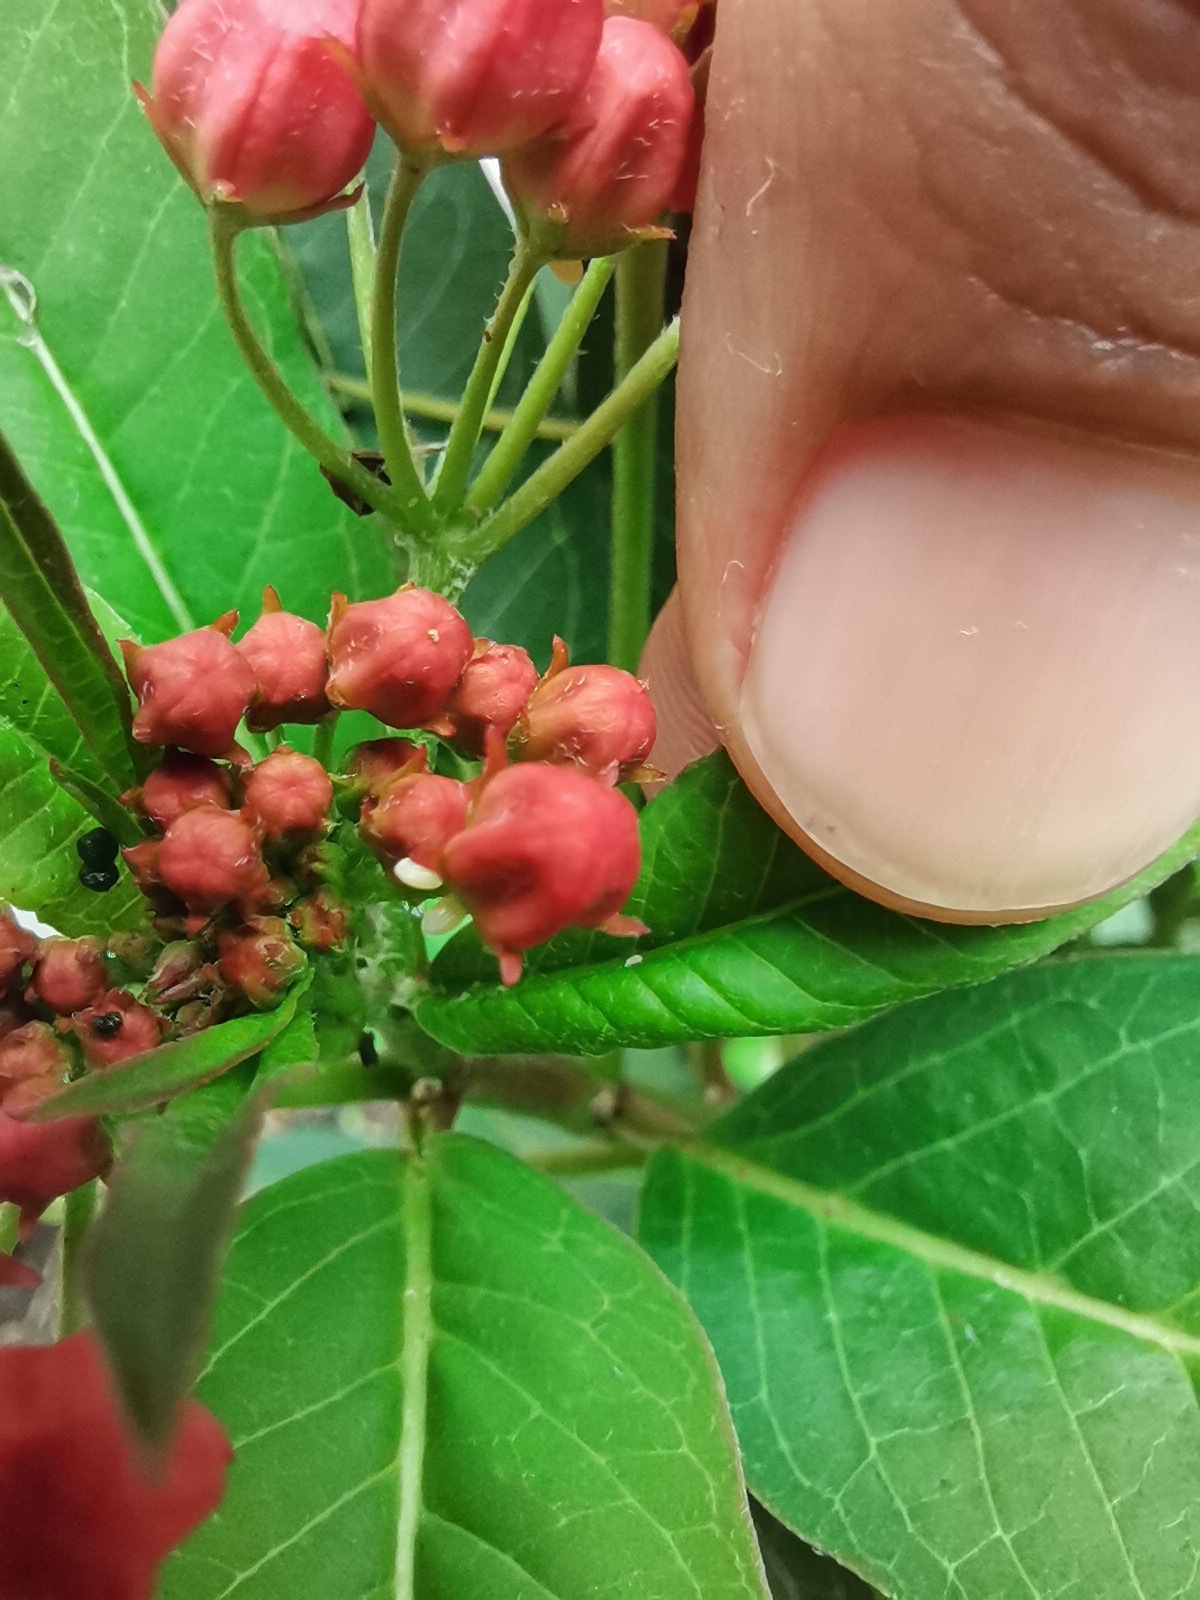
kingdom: Animalia
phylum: Arthropoda
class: Insecta
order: Lepidoptera
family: Nymphalidae
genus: Danaus
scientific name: Danaus plexippus
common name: Monarch
